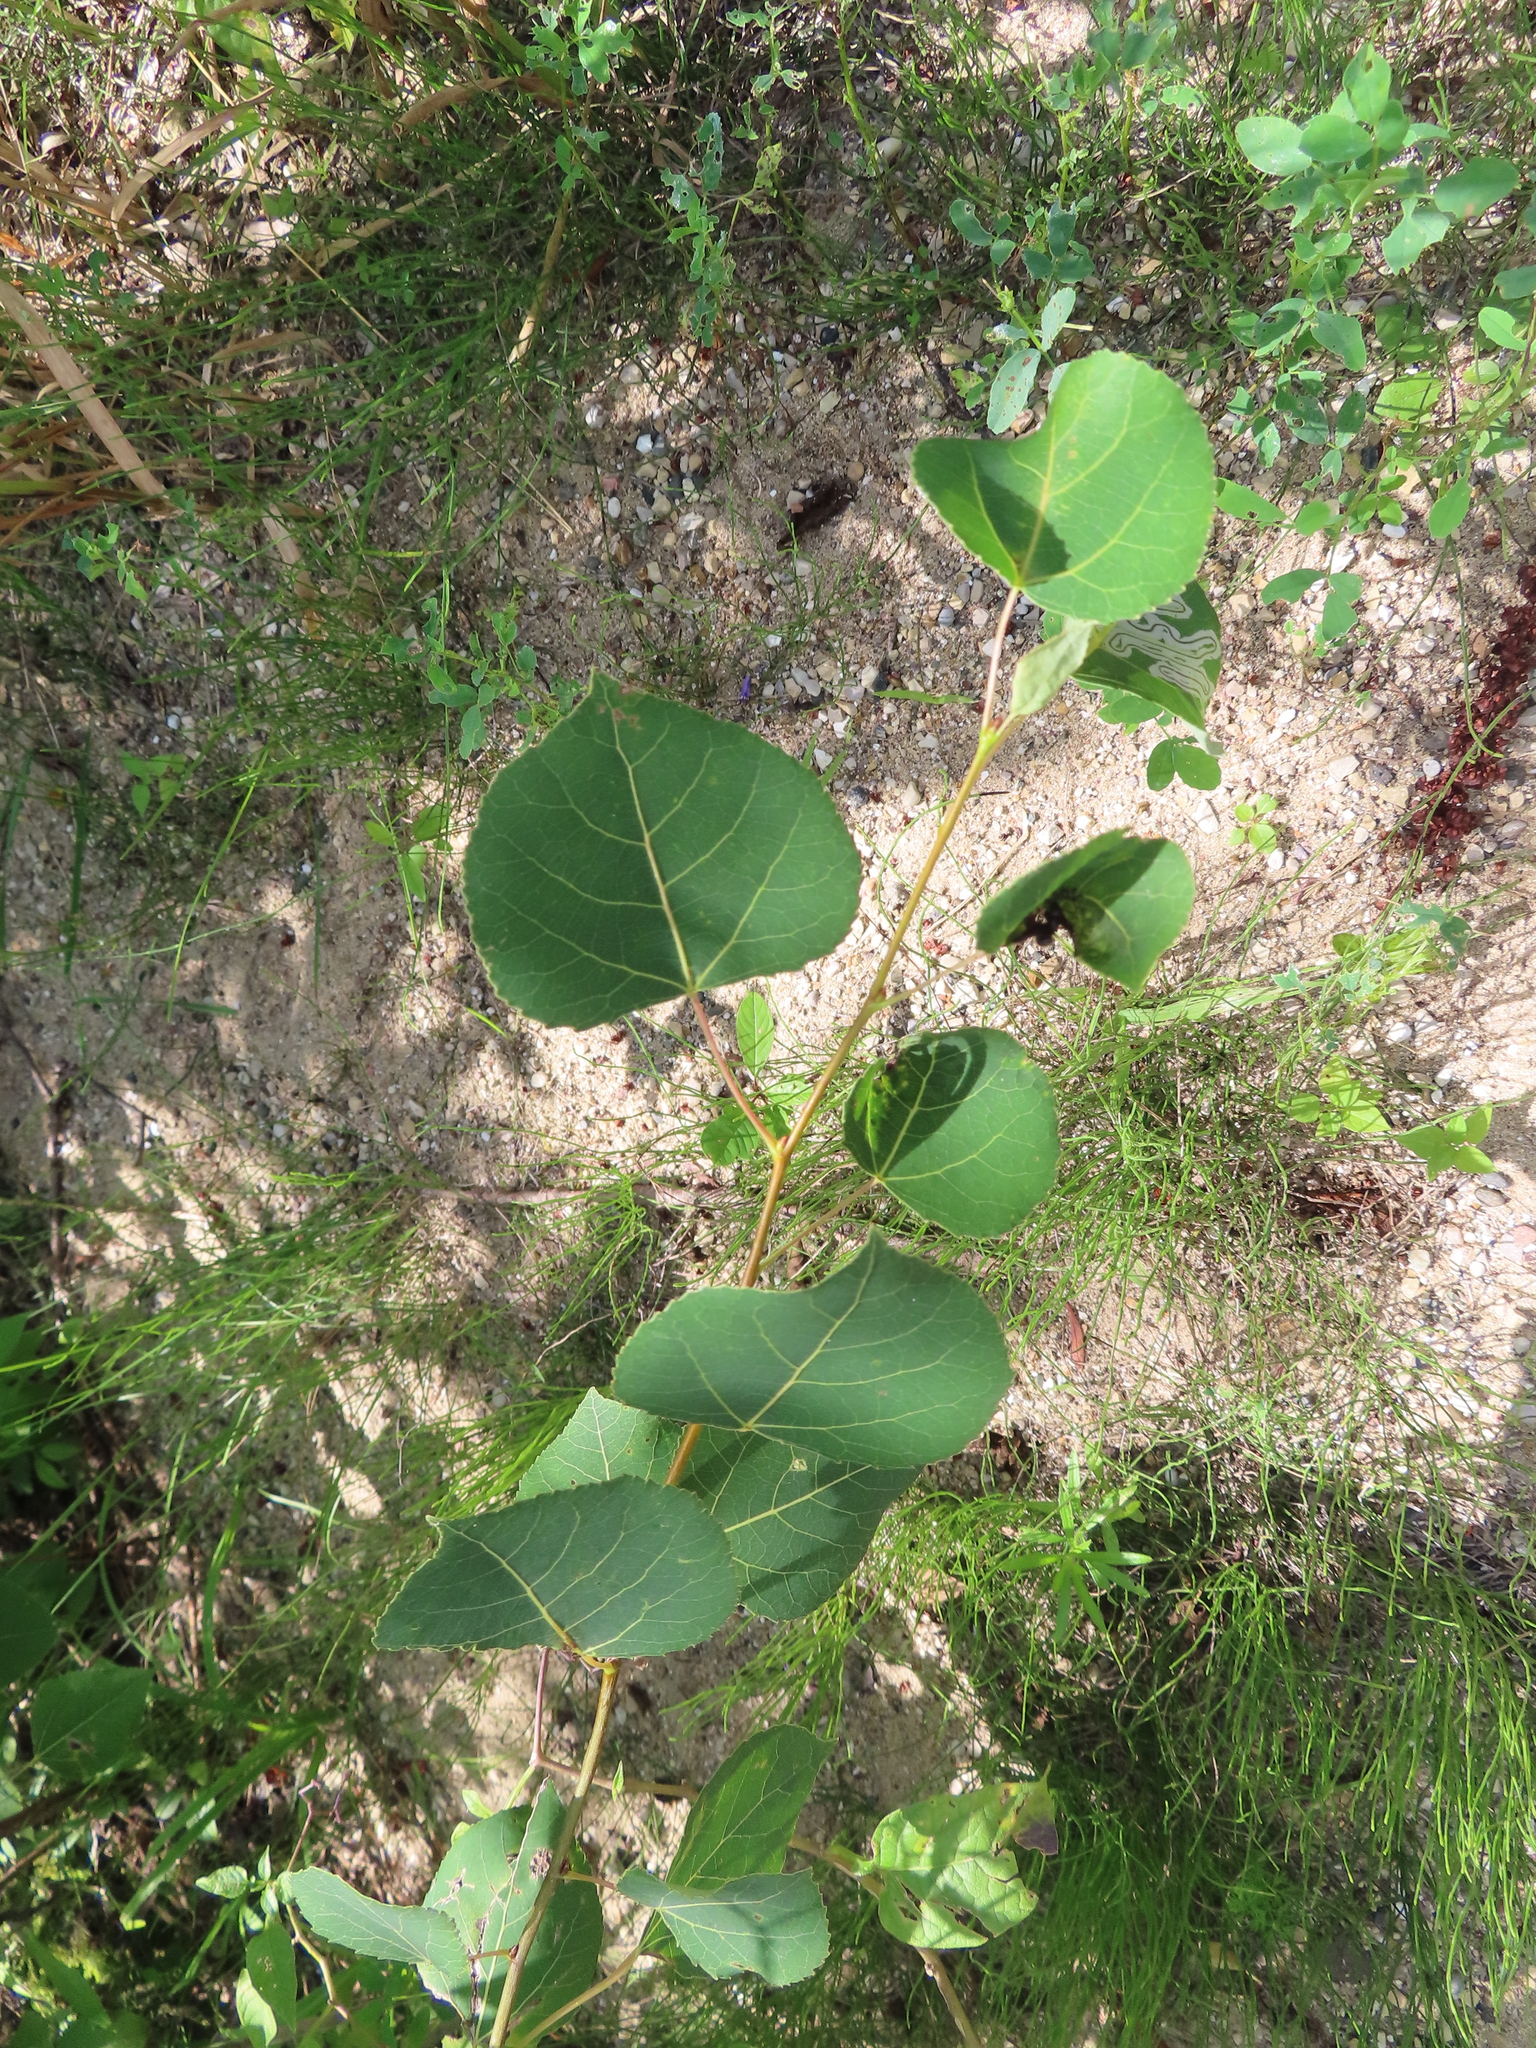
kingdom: Plantae
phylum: Tracheophyta
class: Magnoliopsida
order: Malpighiales
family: Salicaceae
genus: Populus
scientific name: Populus tremuloides
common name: Quaking aspen
